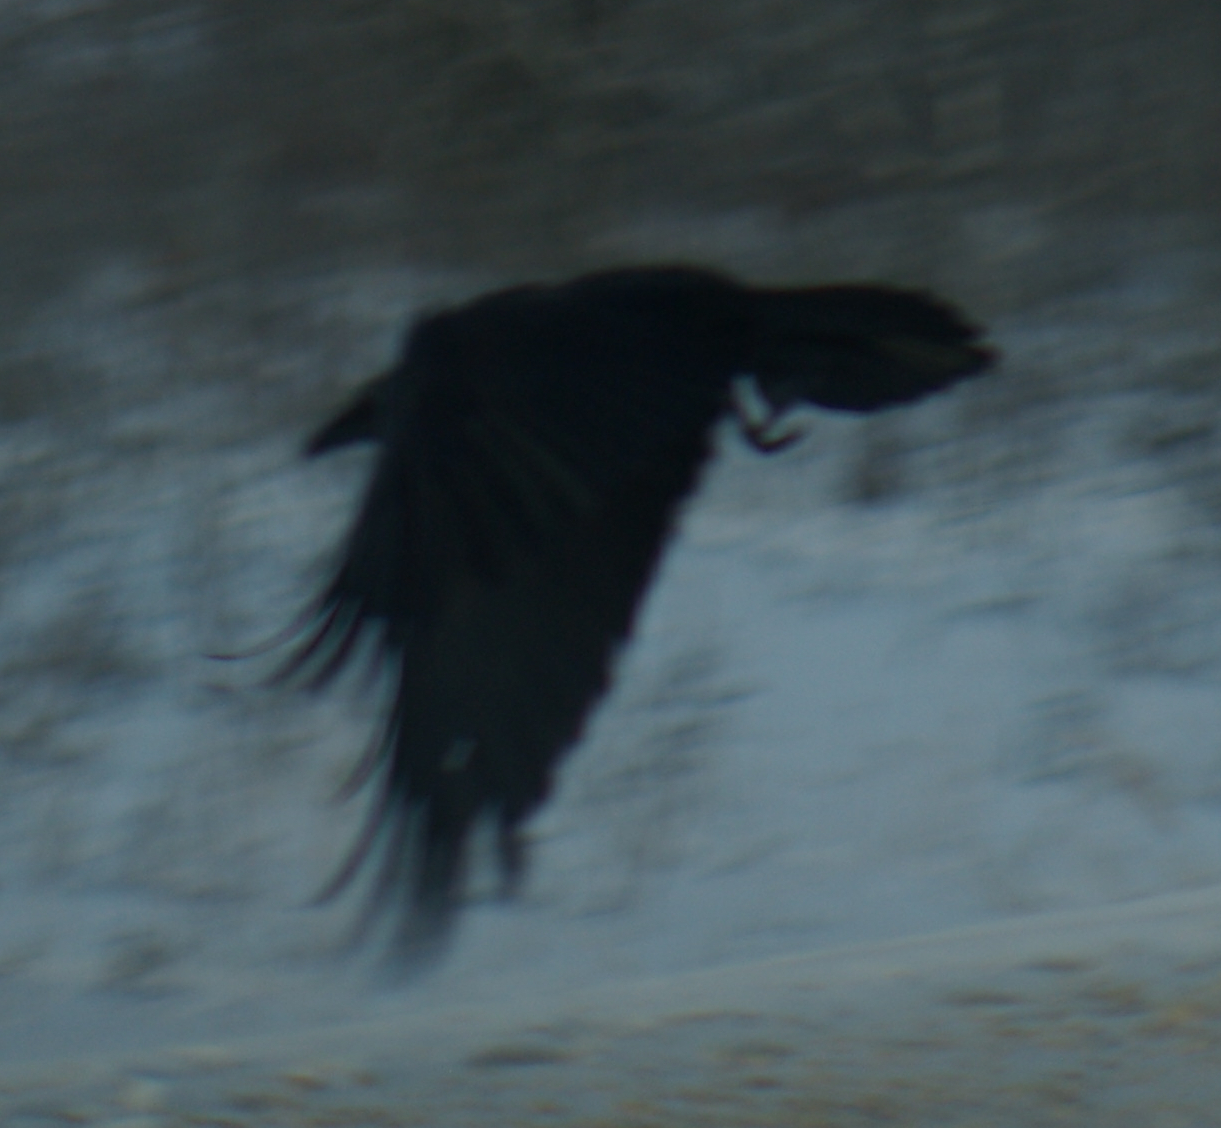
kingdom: Animalia
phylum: Chordata
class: Aves
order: Passeriformes
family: Corvidae
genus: Corvus
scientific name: Corvus corax
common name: Common raven
